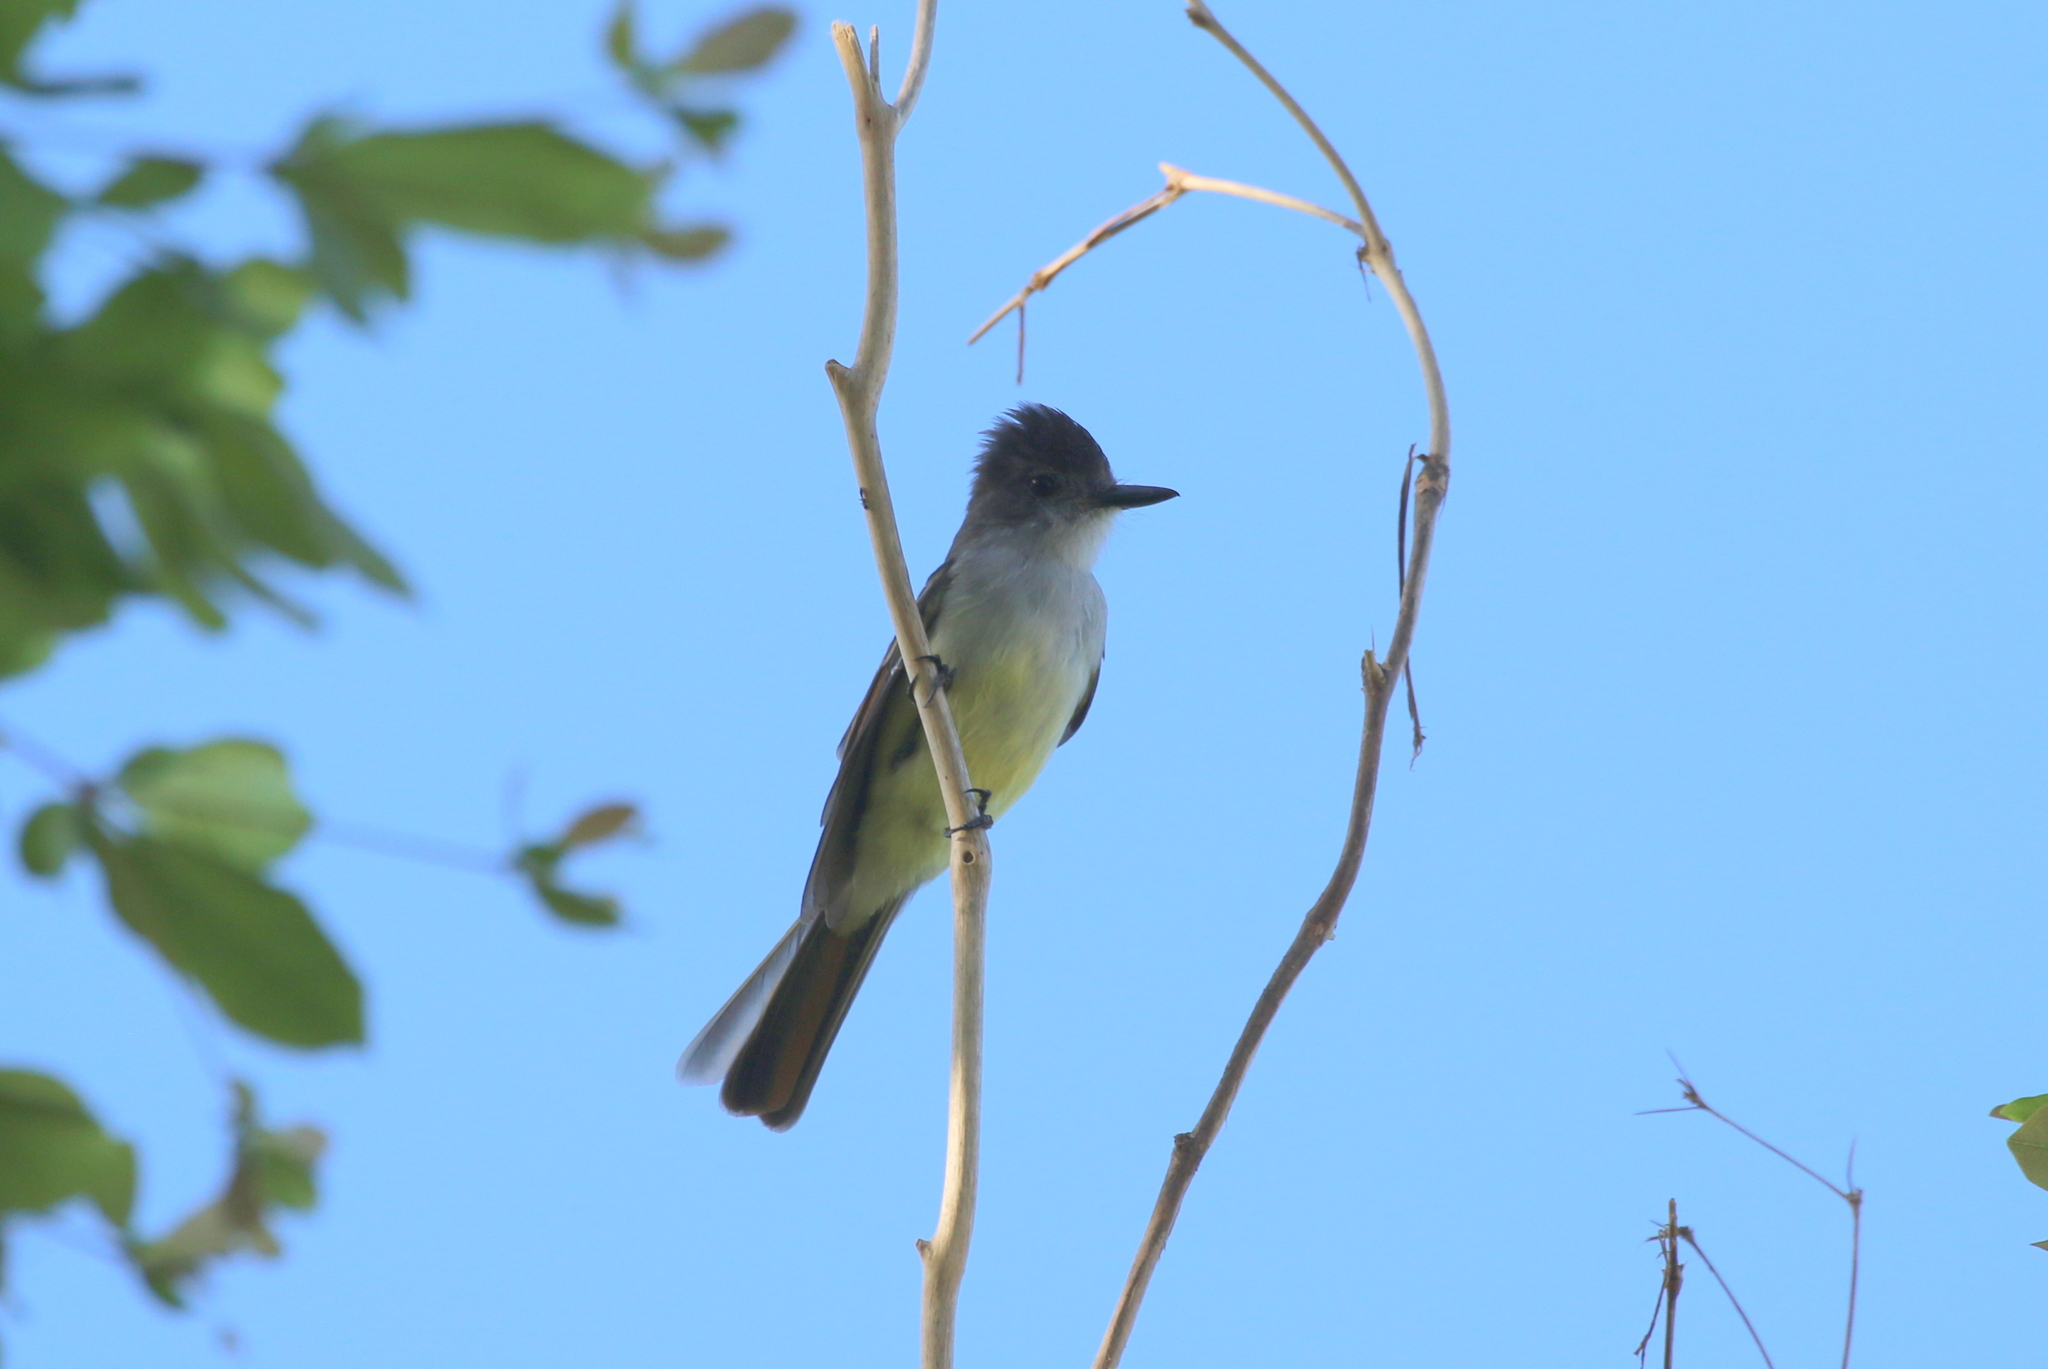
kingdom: Animalia
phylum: Chordata
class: Aves
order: Passeriformes
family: Tyrannidae
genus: Myiarchus
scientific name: Myiarchus stolidus
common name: Stolid flycatcher
